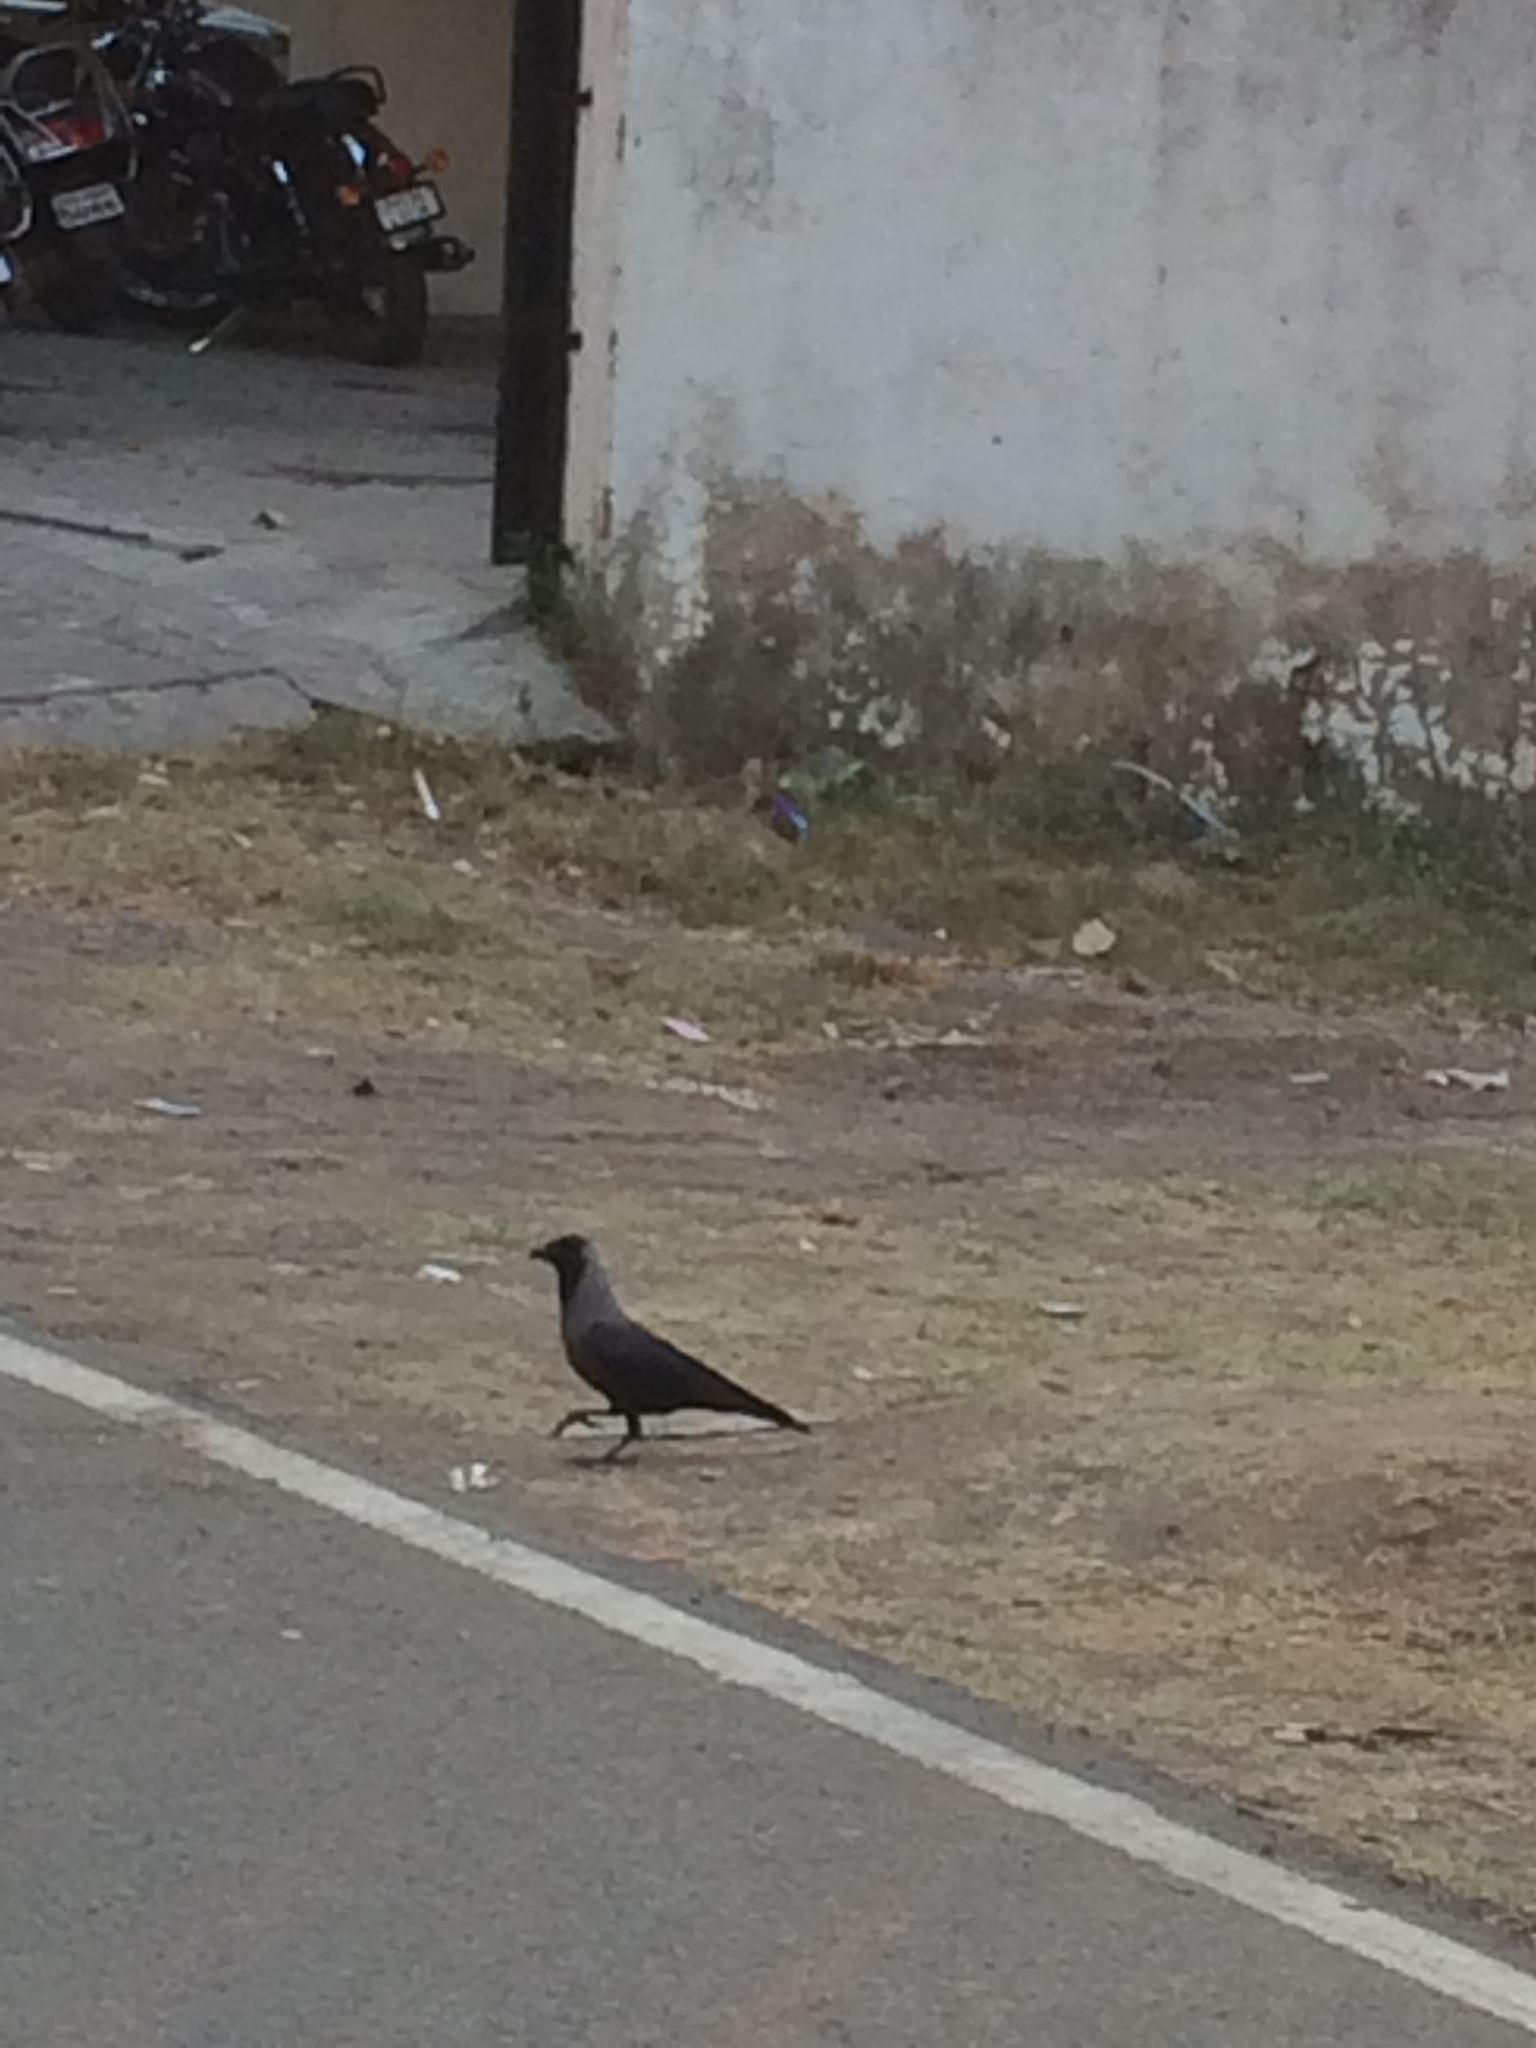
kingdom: Animalia
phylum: Chordata
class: Aves
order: Passeriformes
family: Corvidae
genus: Corvus
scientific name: Corvus splendens
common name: House crow
